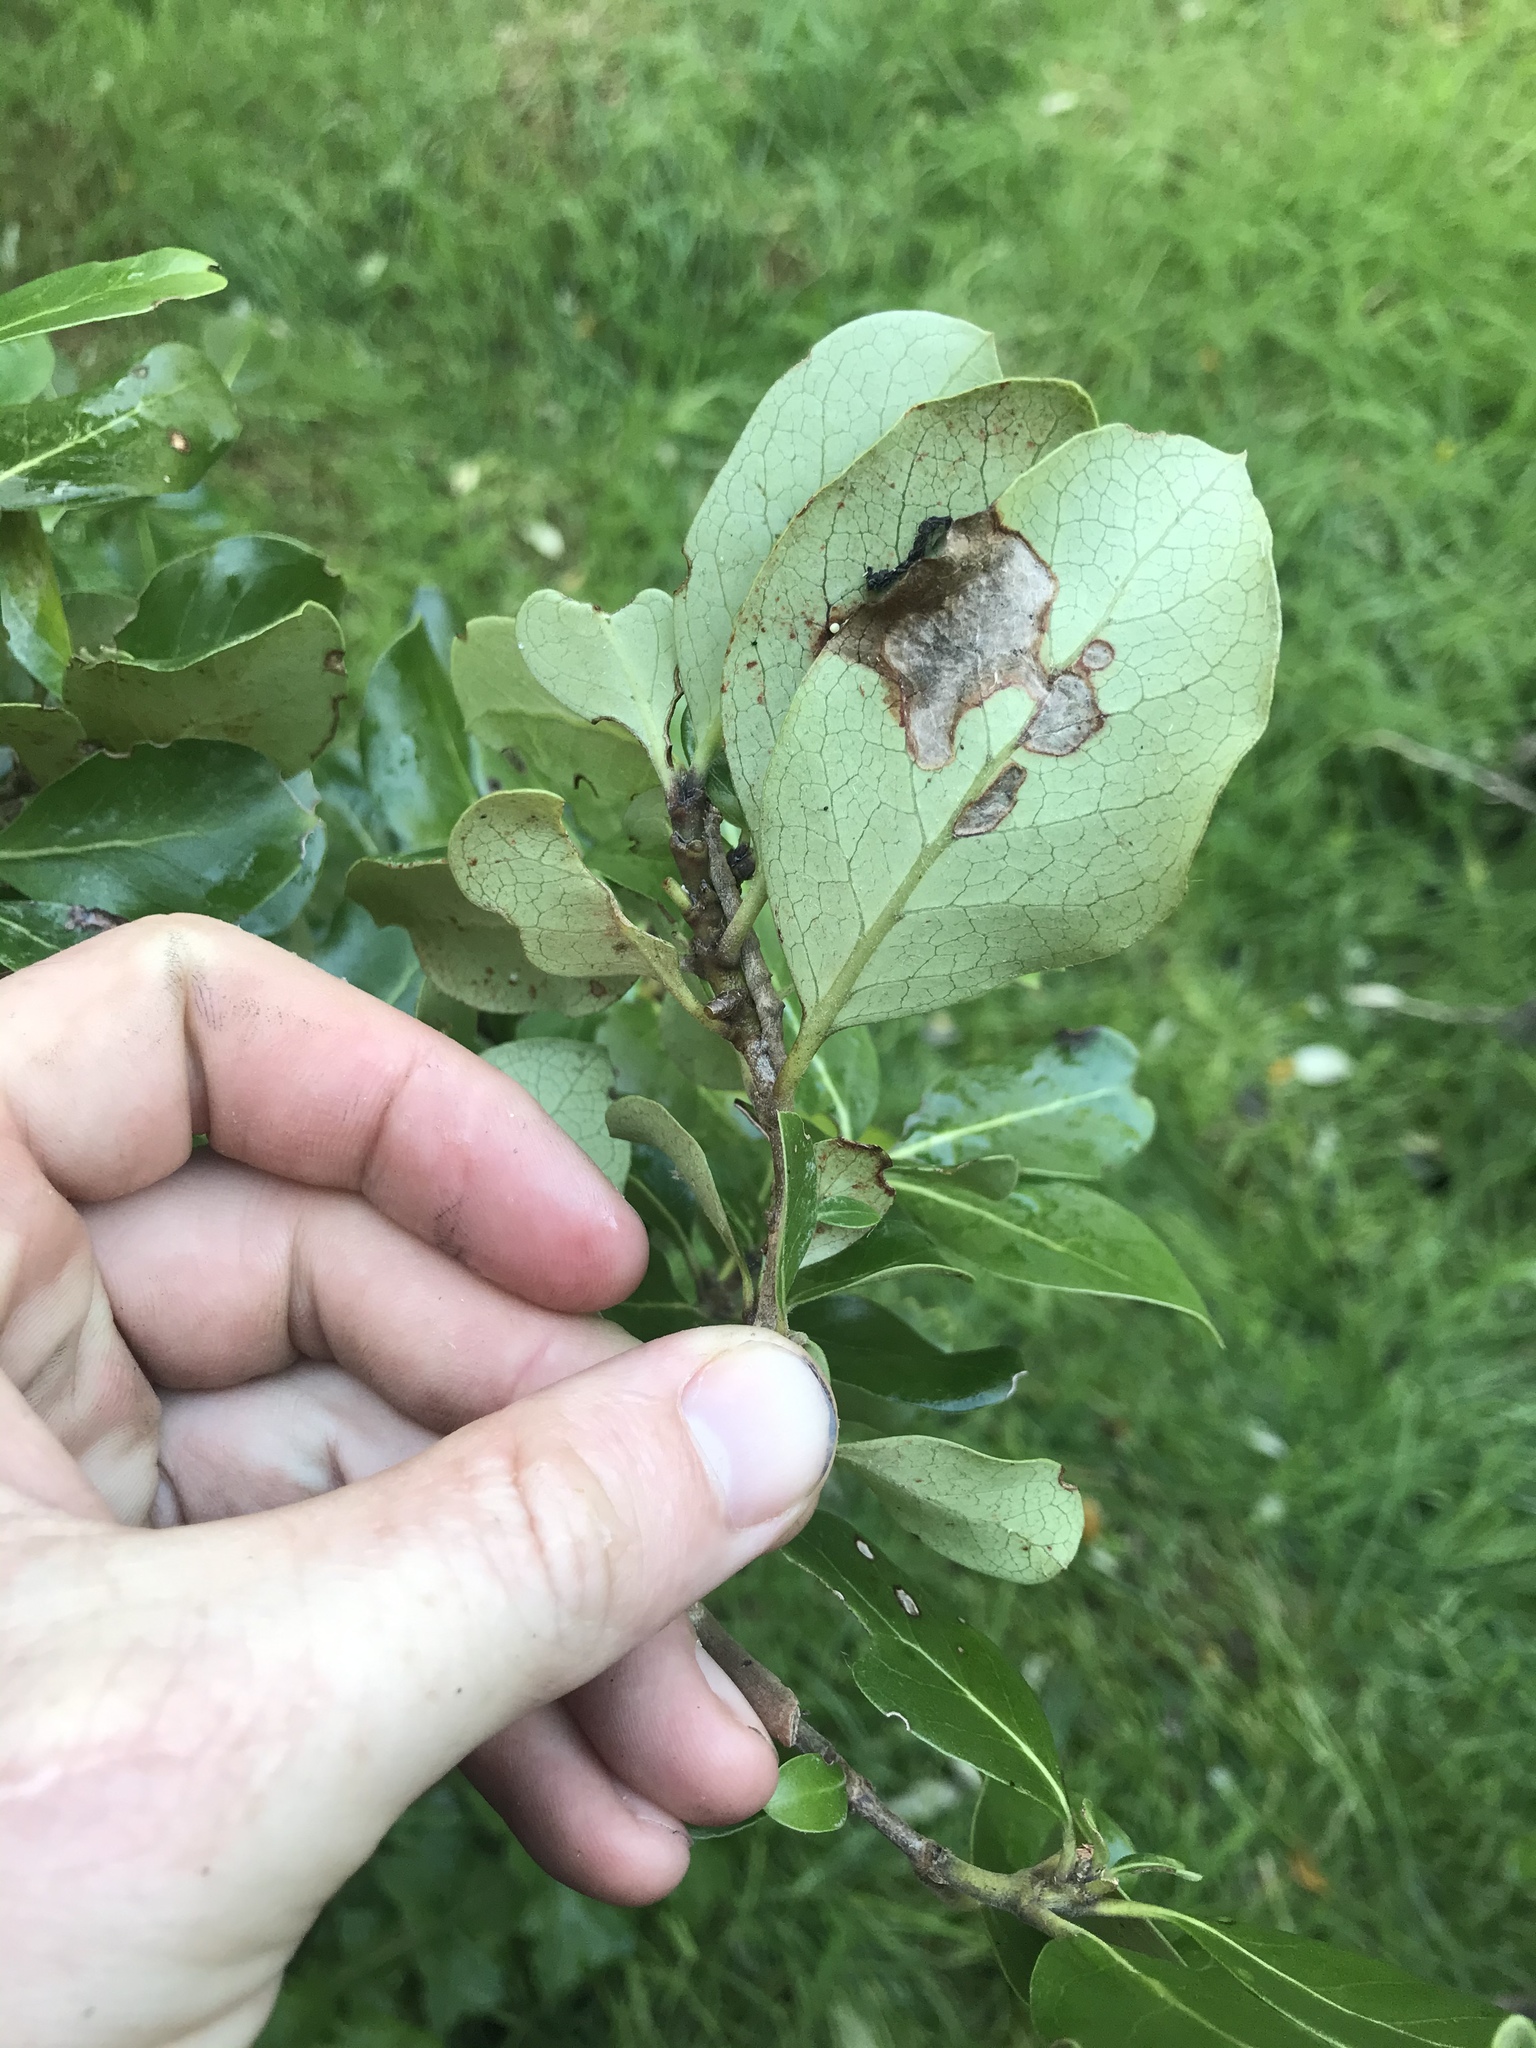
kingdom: Plantae
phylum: Tracheophyta
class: Magnoliopsida
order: Gentianales
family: Rubiaceae
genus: Coprosma
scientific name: Coprosma chathamica
